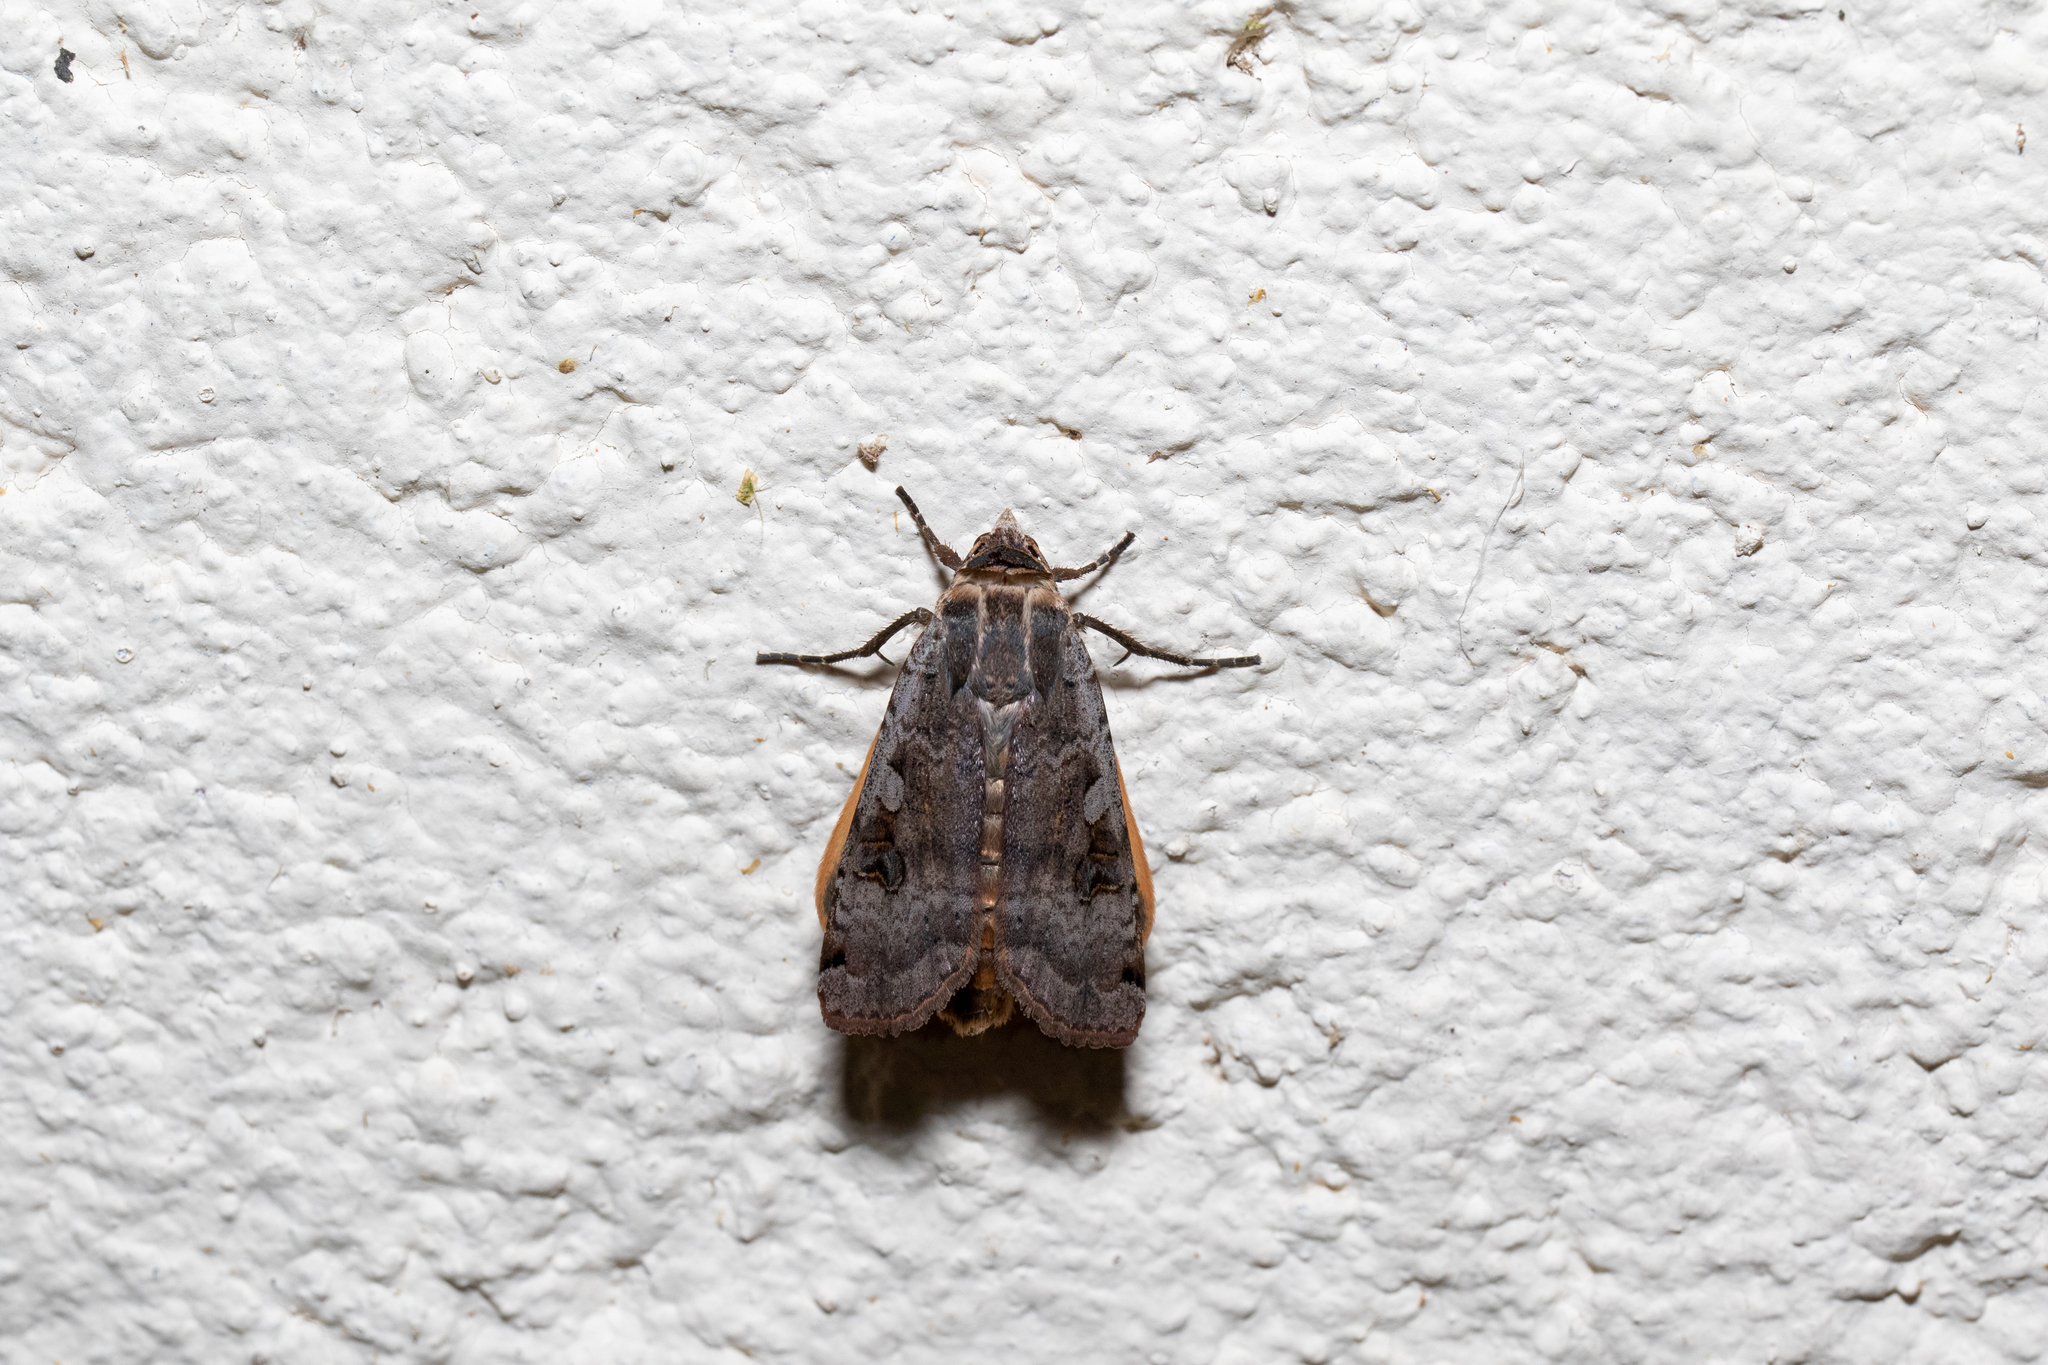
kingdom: Animalia
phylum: Arthropoda
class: Insecta
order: Lepidoptera
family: Noctuidae
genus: Noctua
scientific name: Noctua pronuba
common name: Large yellow underwing
